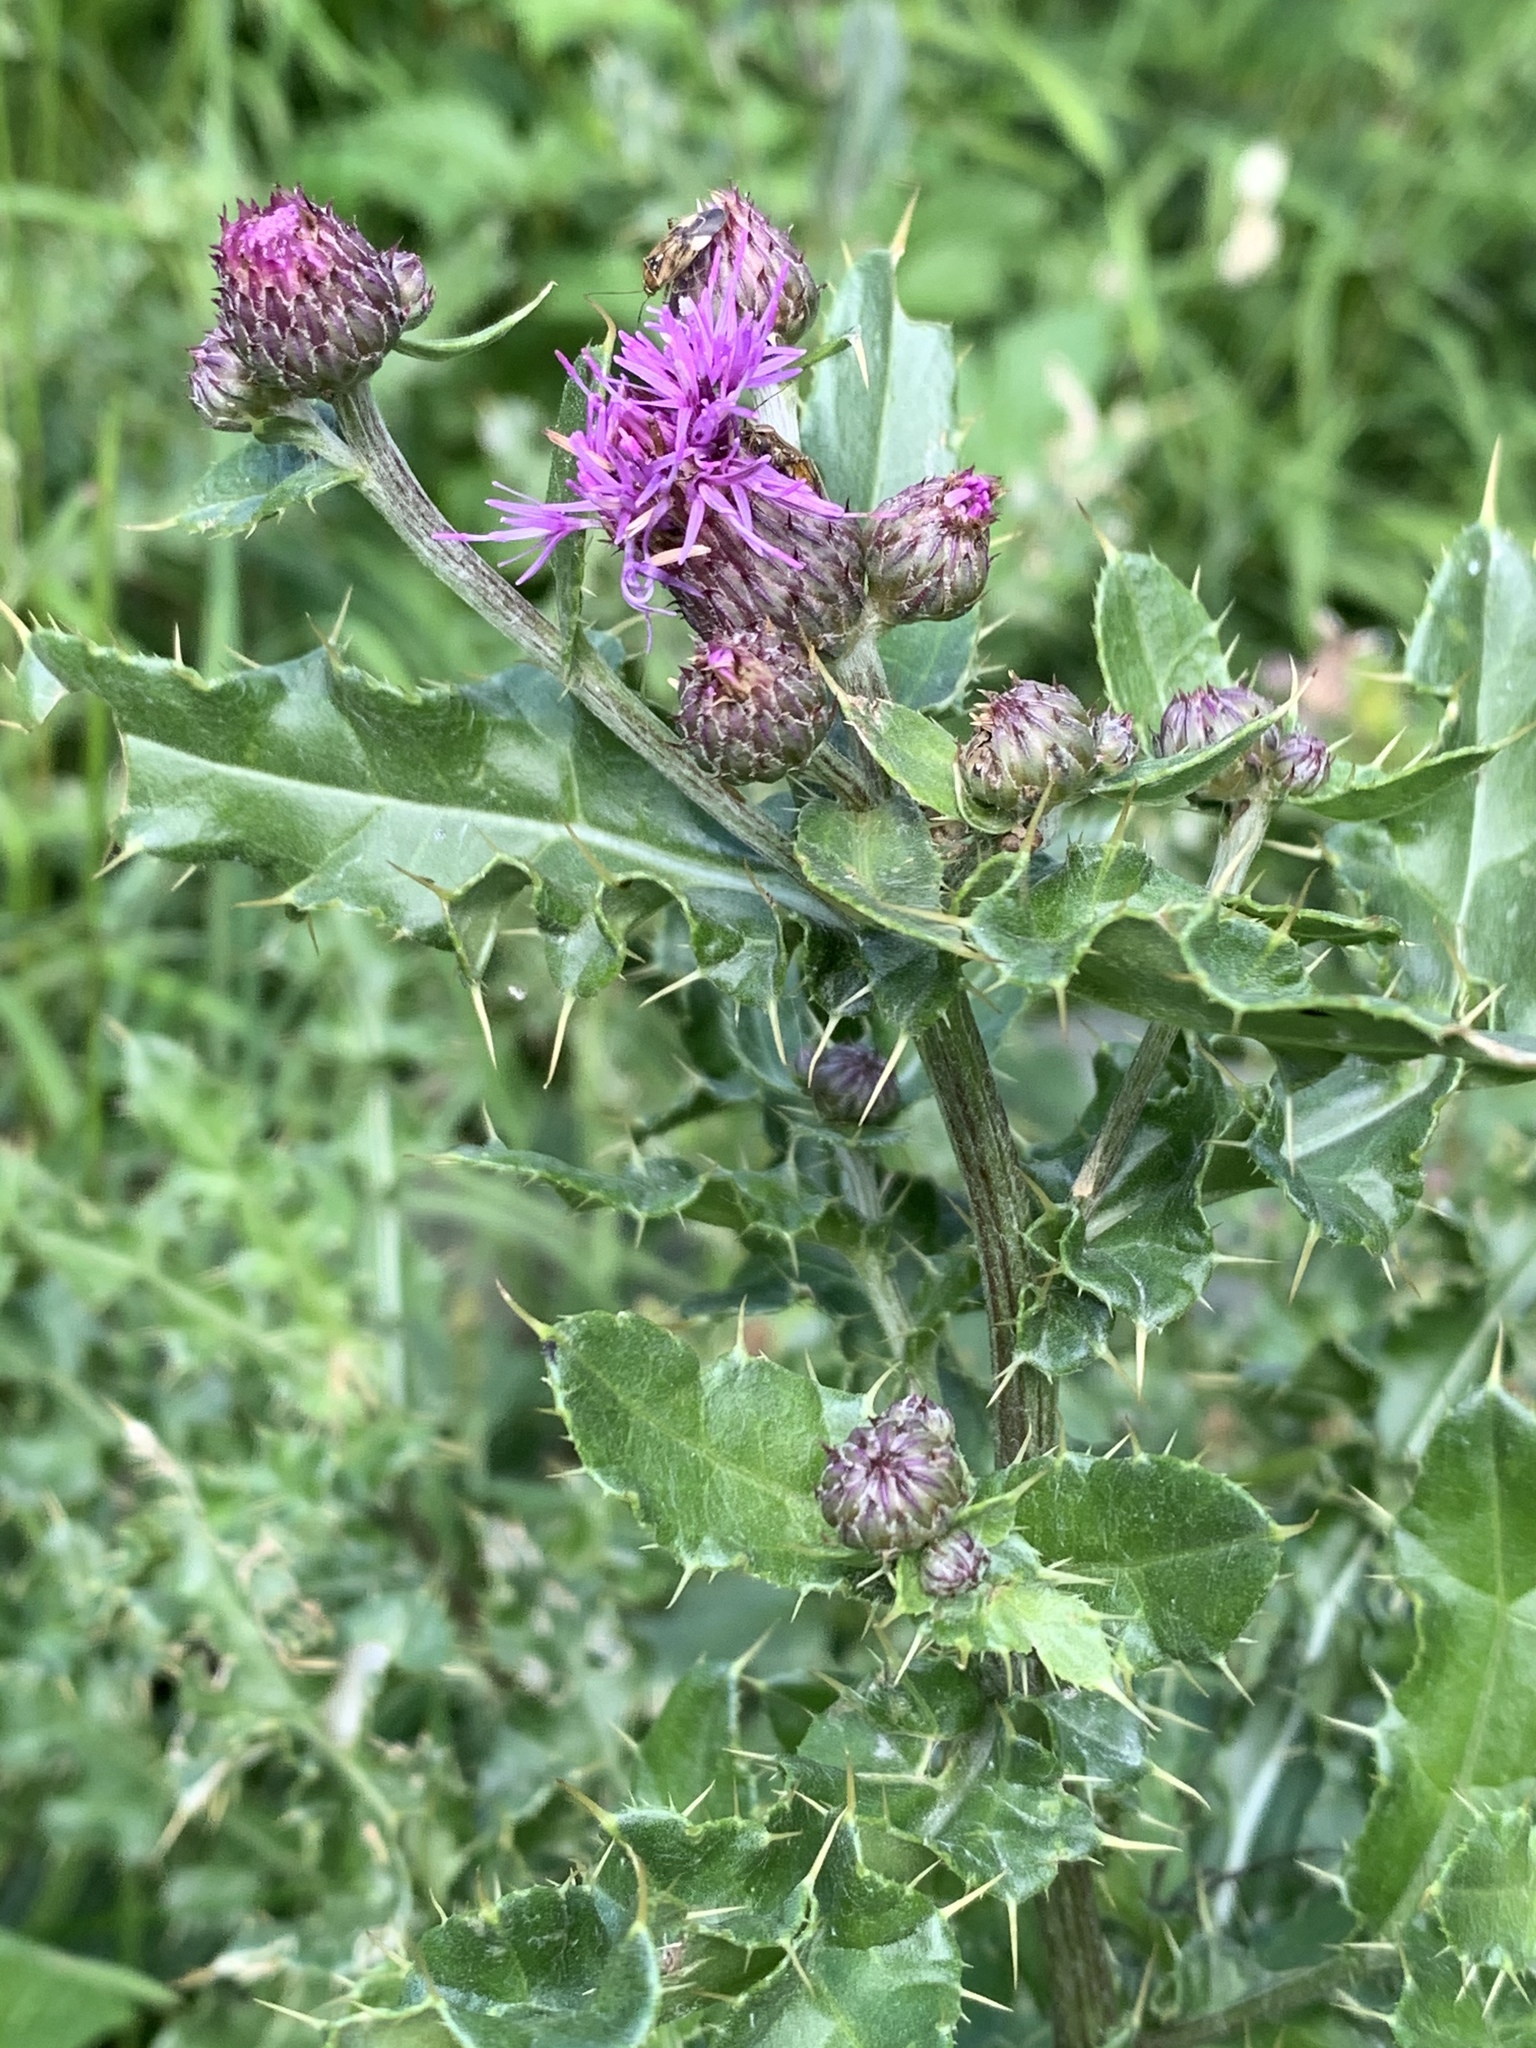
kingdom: Plantae
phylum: Tracheophyta
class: Magnoliopsida
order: Asterales
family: Asteraceae
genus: Cirsium
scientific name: Cirsium arvense
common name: Creeping thistle
